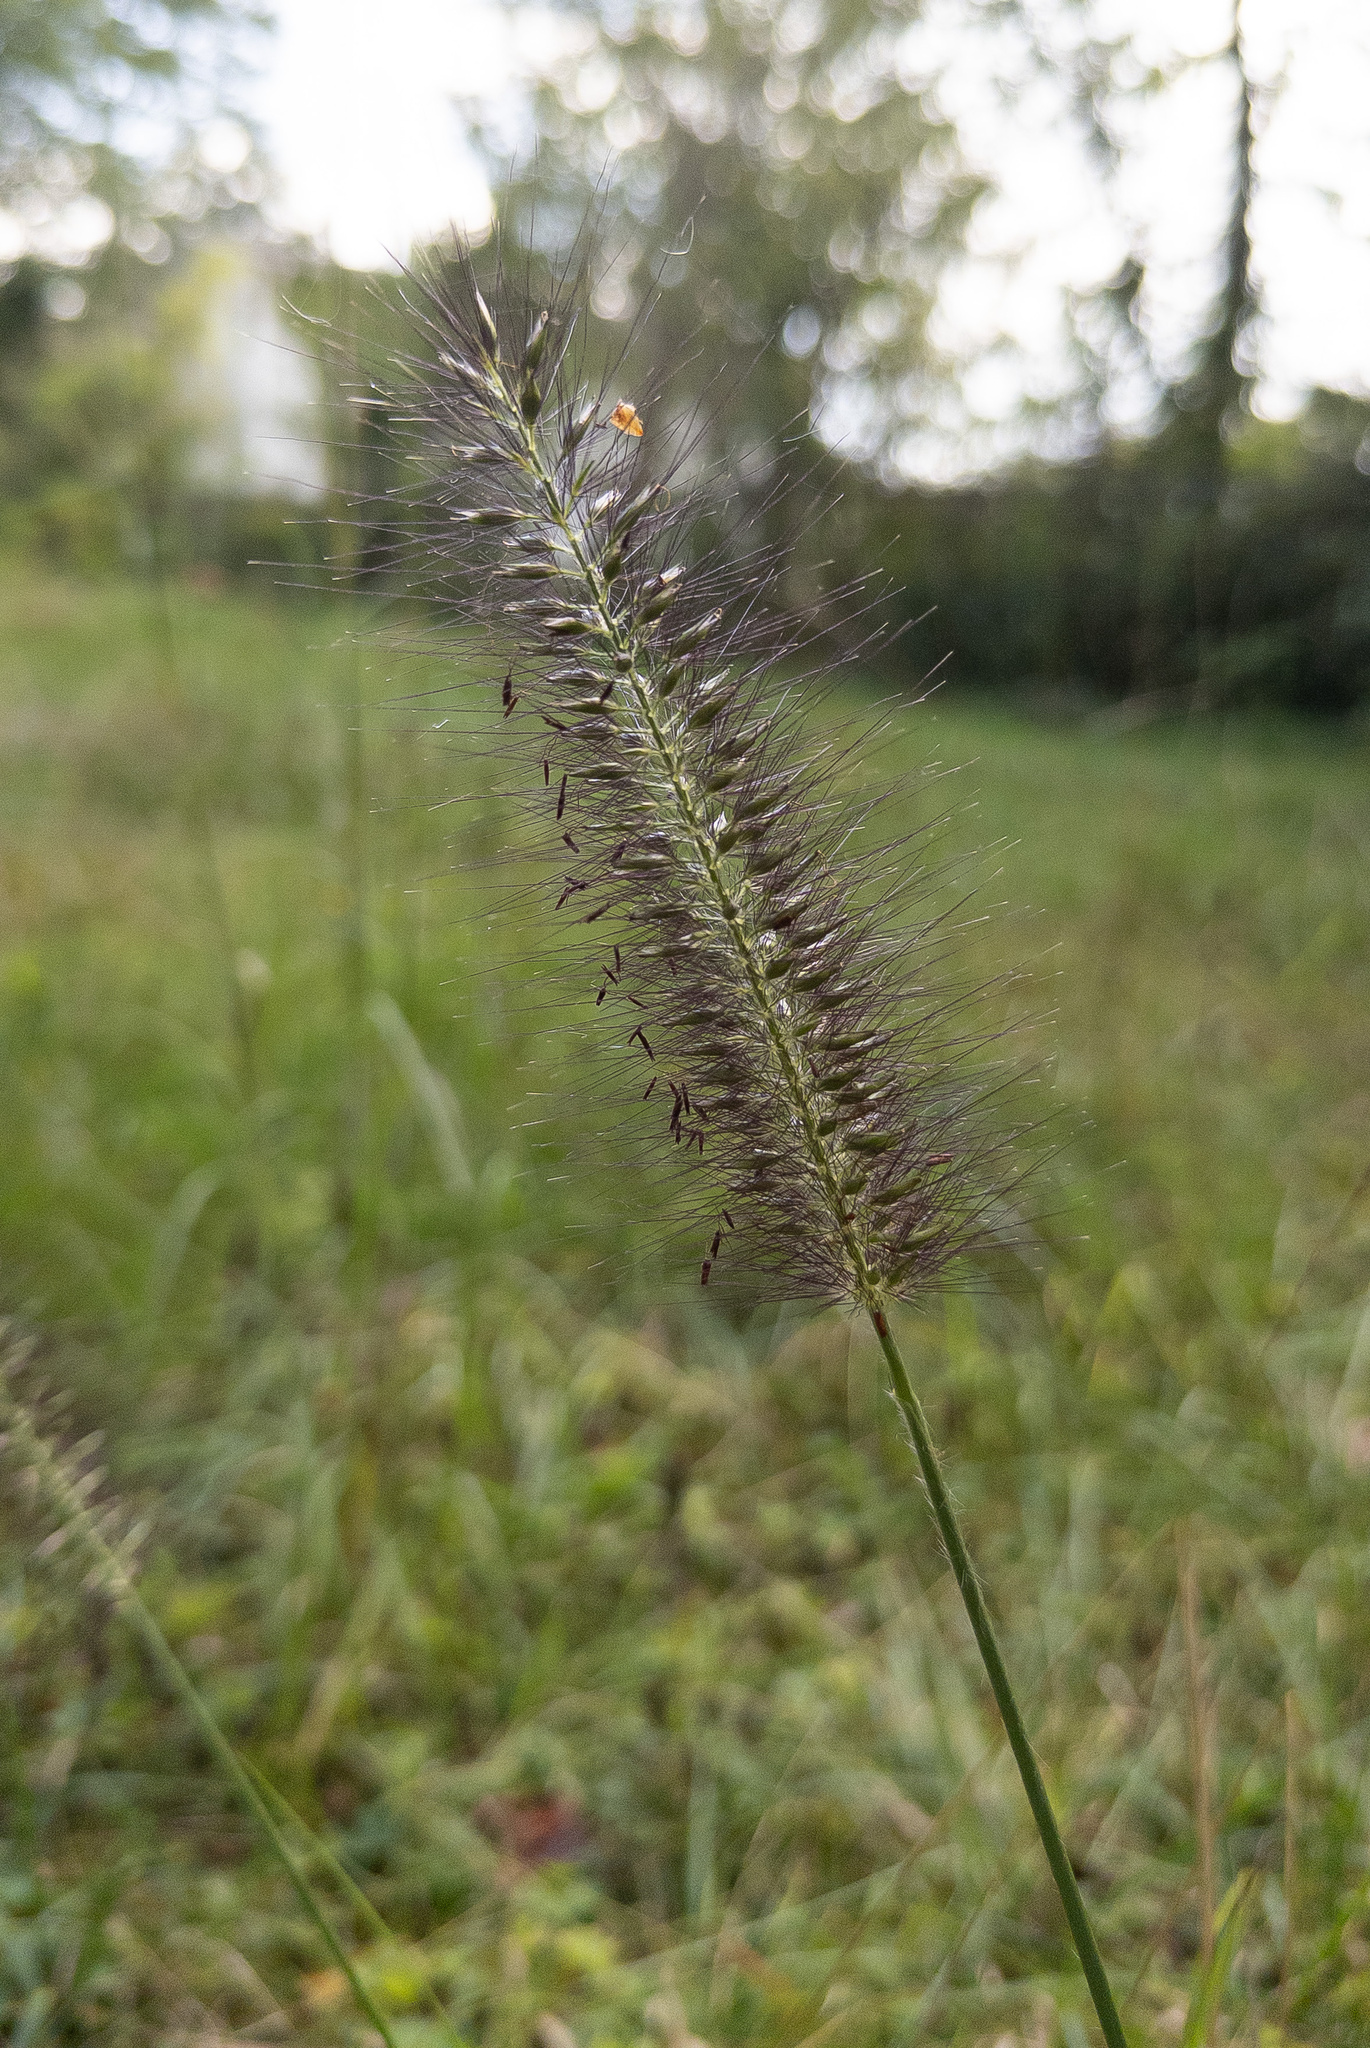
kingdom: Plantae
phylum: Tracheophyta
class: Liliopsida
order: Poales
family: Poaceae
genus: Cenchrus
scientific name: Cenchrus alopecuroides
